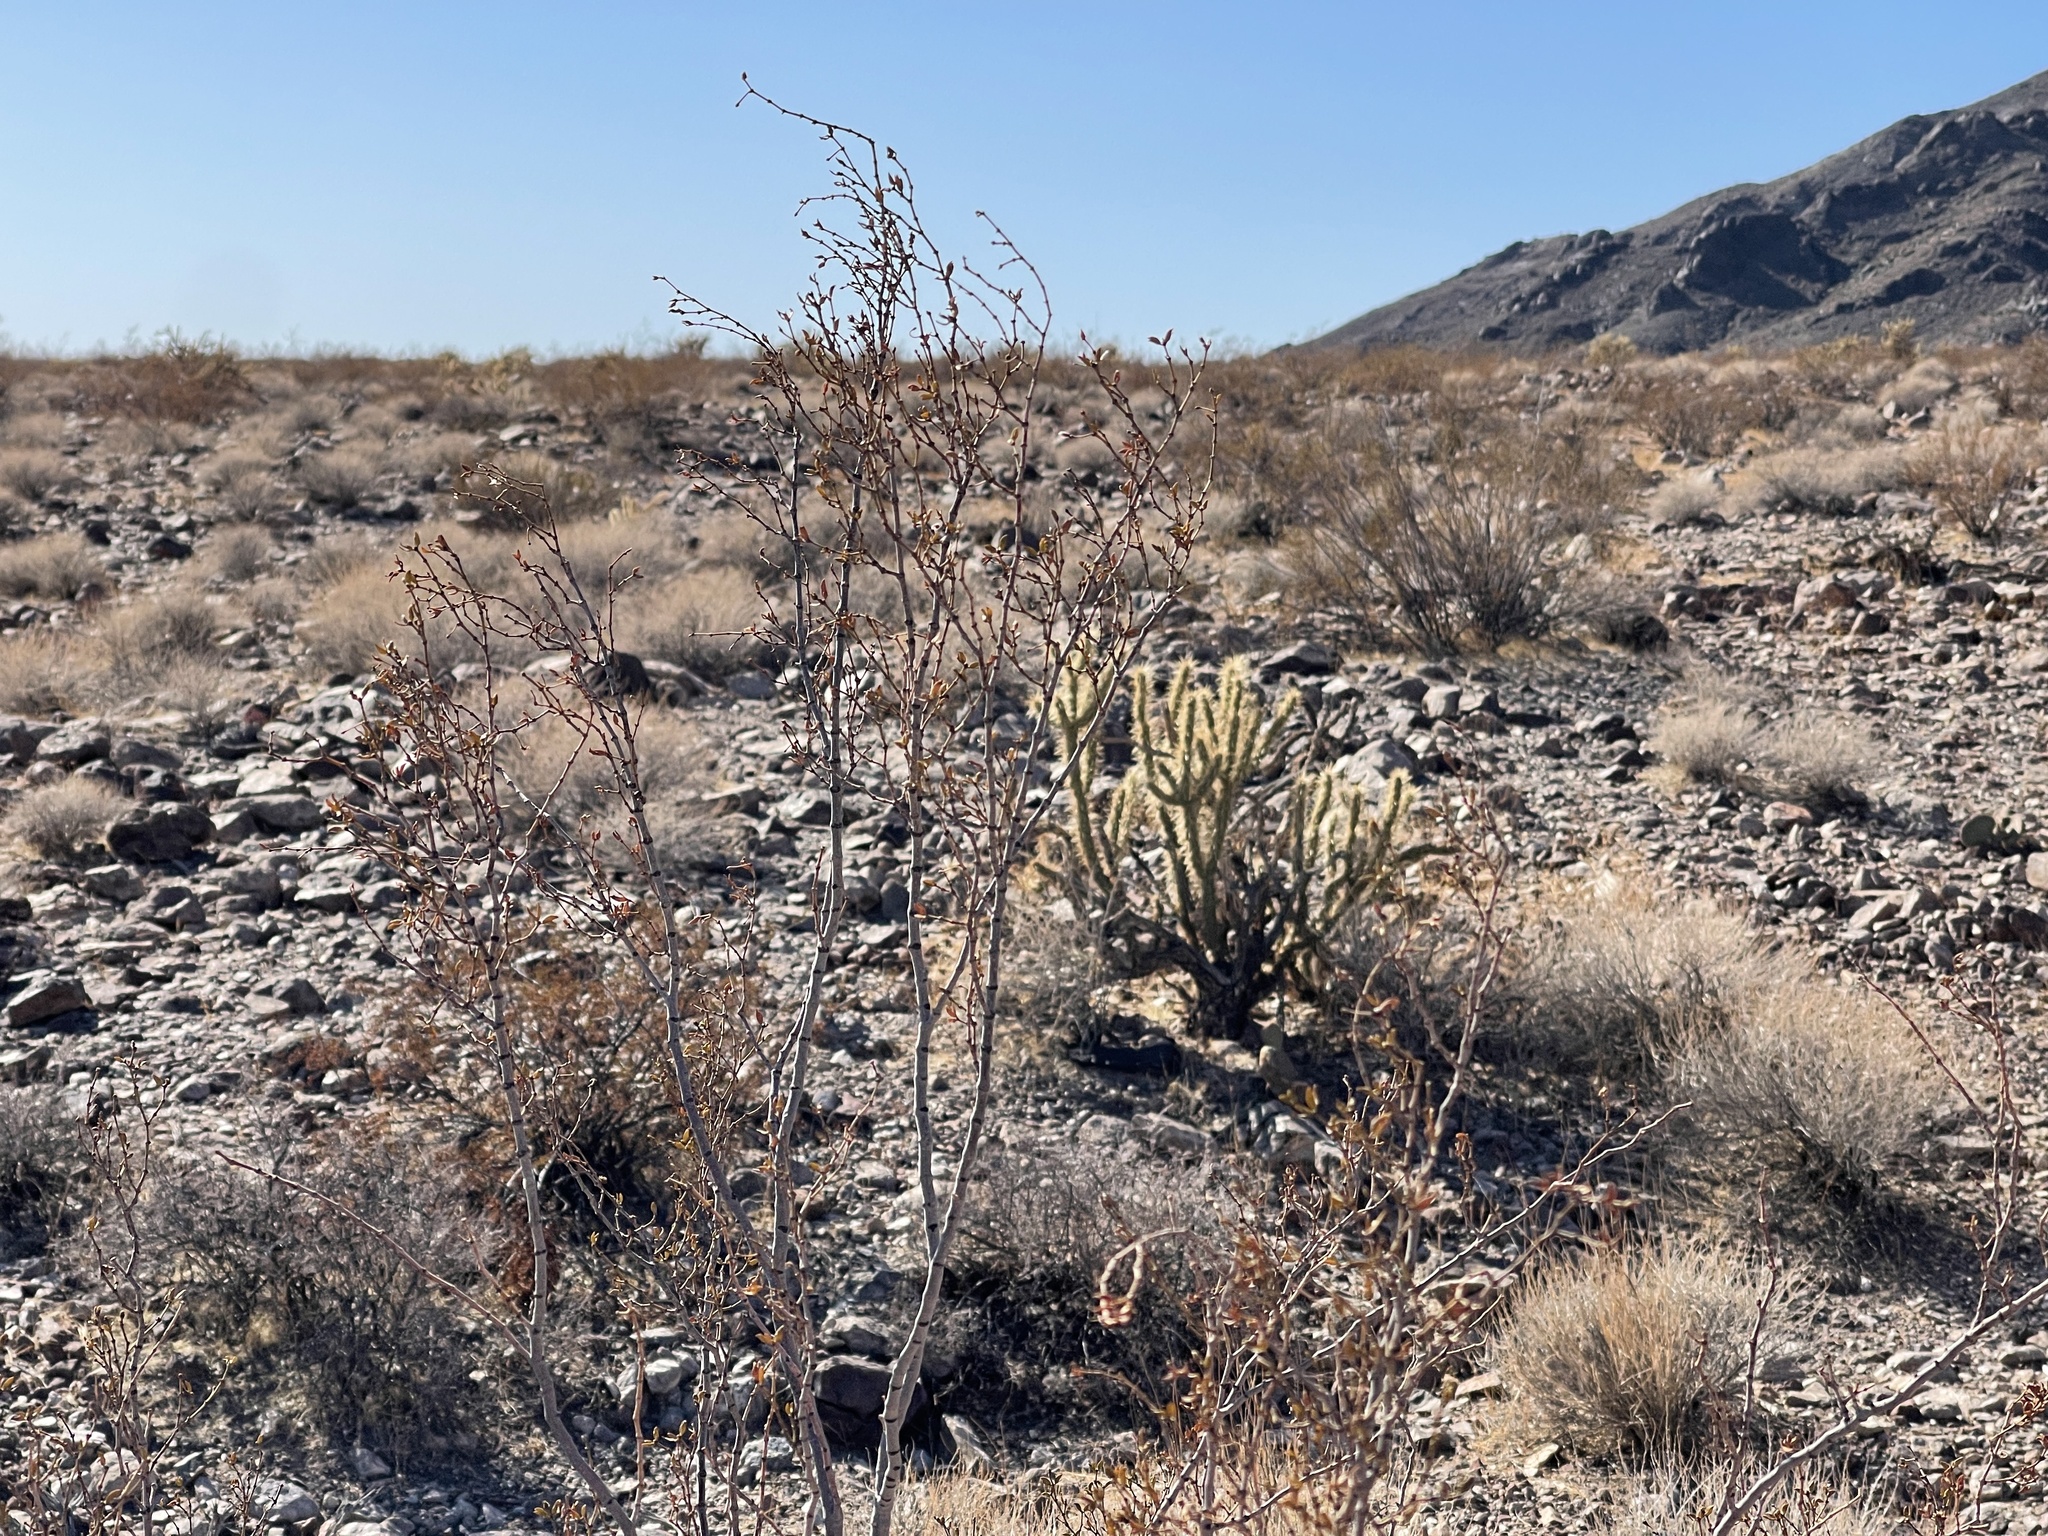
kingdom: Plantae
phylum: Tracheophyta
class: Magnoliopsida
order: Zygophyllales
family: Zygophyllaceae
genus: Larrea
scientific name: Larrea tridentata
